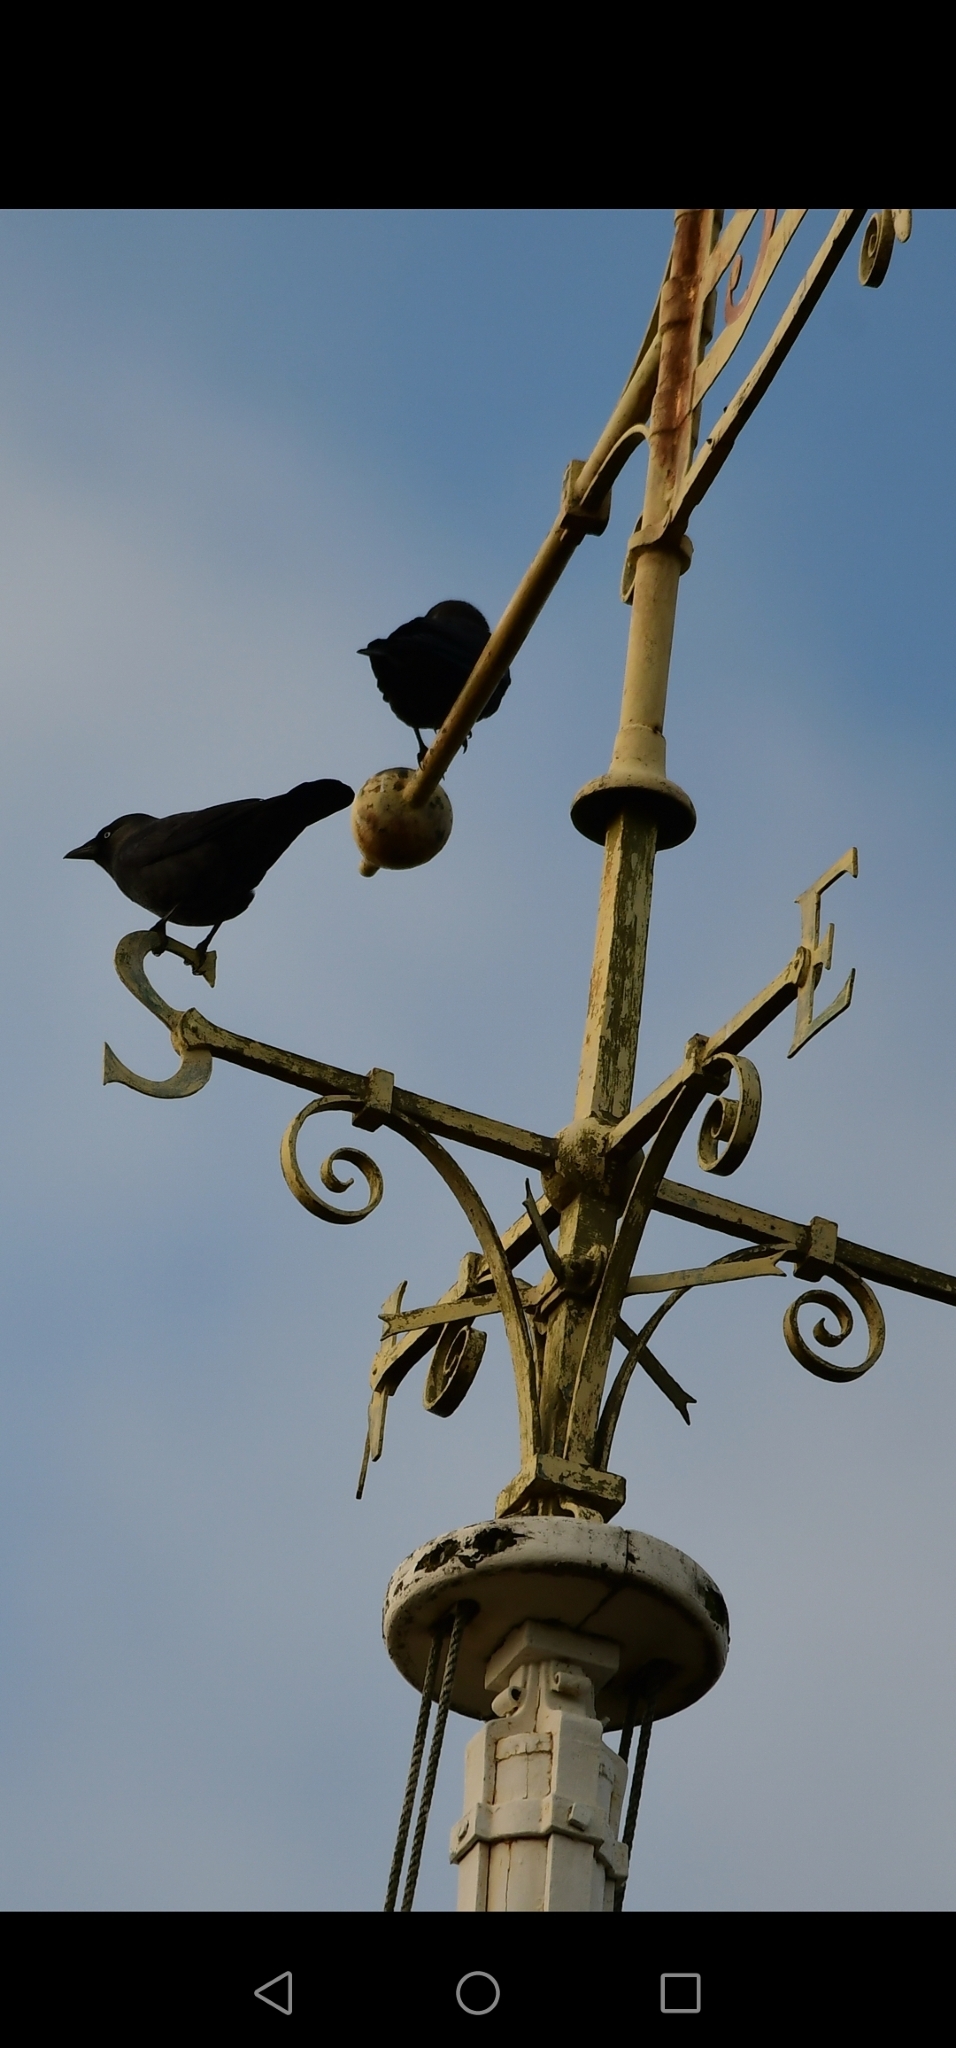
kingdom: Animalia
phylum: Chordata
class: Aves
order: Passeriformes
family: Corvidae
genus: Coloeus
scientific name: Coloeus monedula
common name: Western jackdaw
